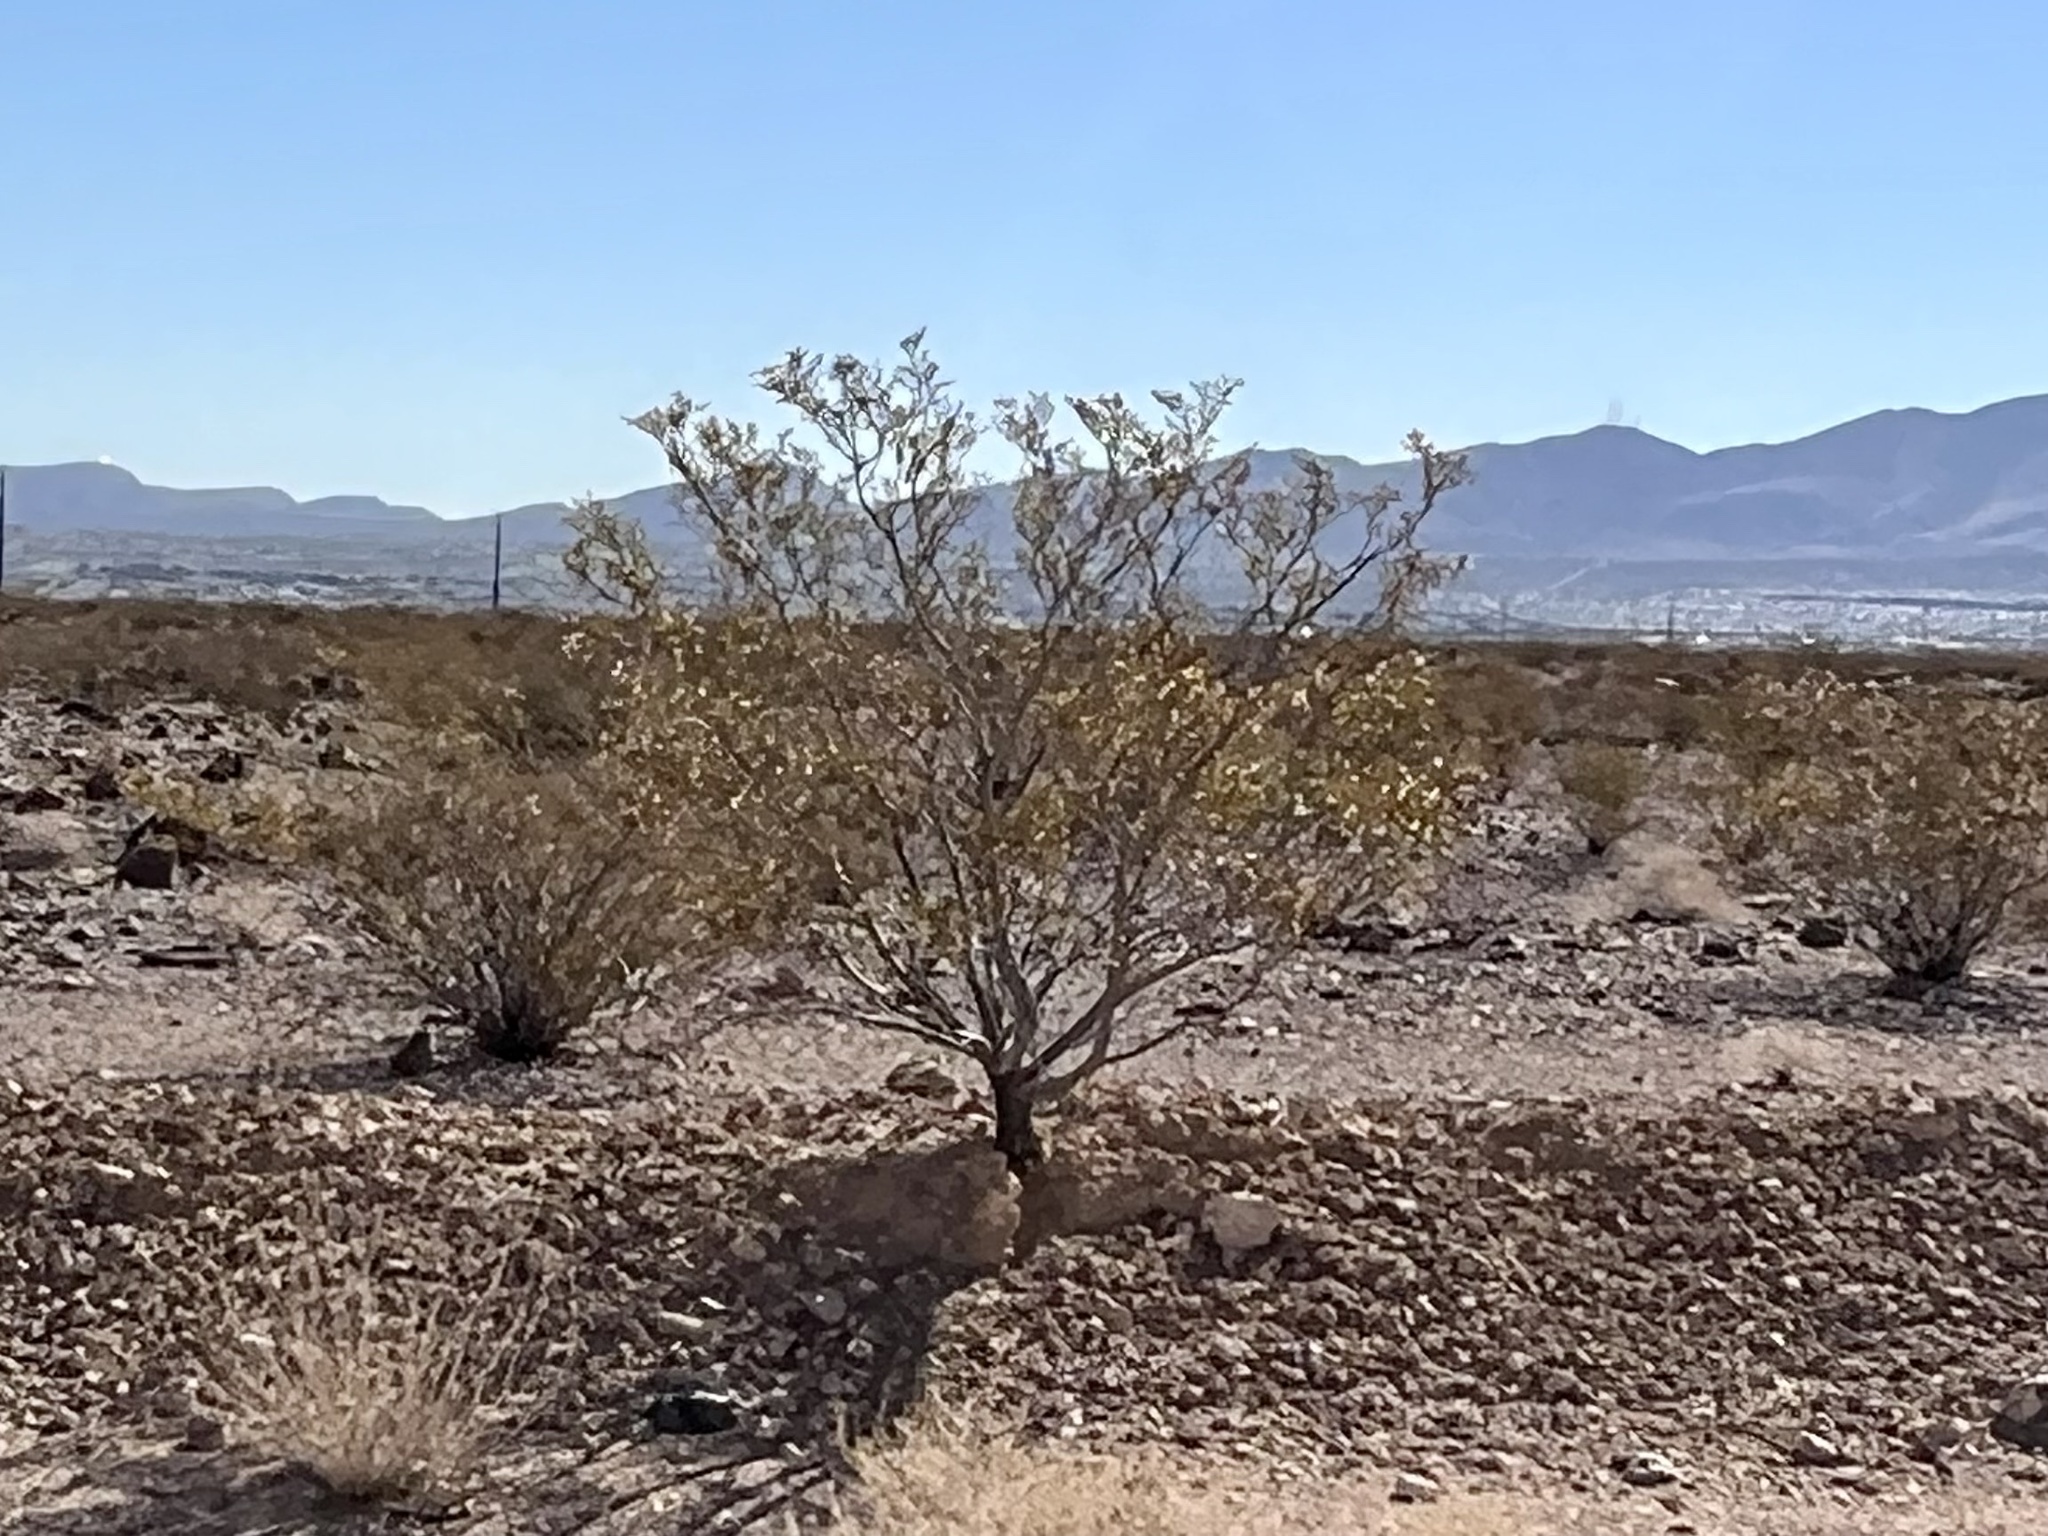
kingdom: Plantae
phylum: Tracheophyta
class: Magnoliopsida
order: Zygophyllales
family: Zygophyllaceae
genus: Larrea
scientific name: Larrea tridentata
